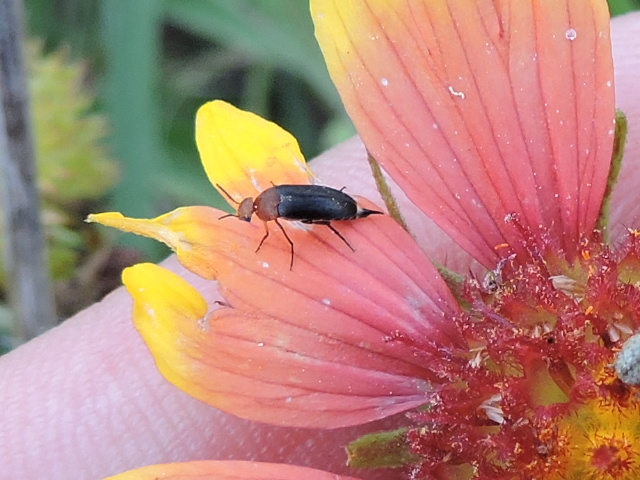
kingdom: Animalia
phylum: Arthropoda
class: Insecta
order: Coleoptera
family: Mordellidae
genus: Mordellistena
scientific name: Mordellistena cervicalis
